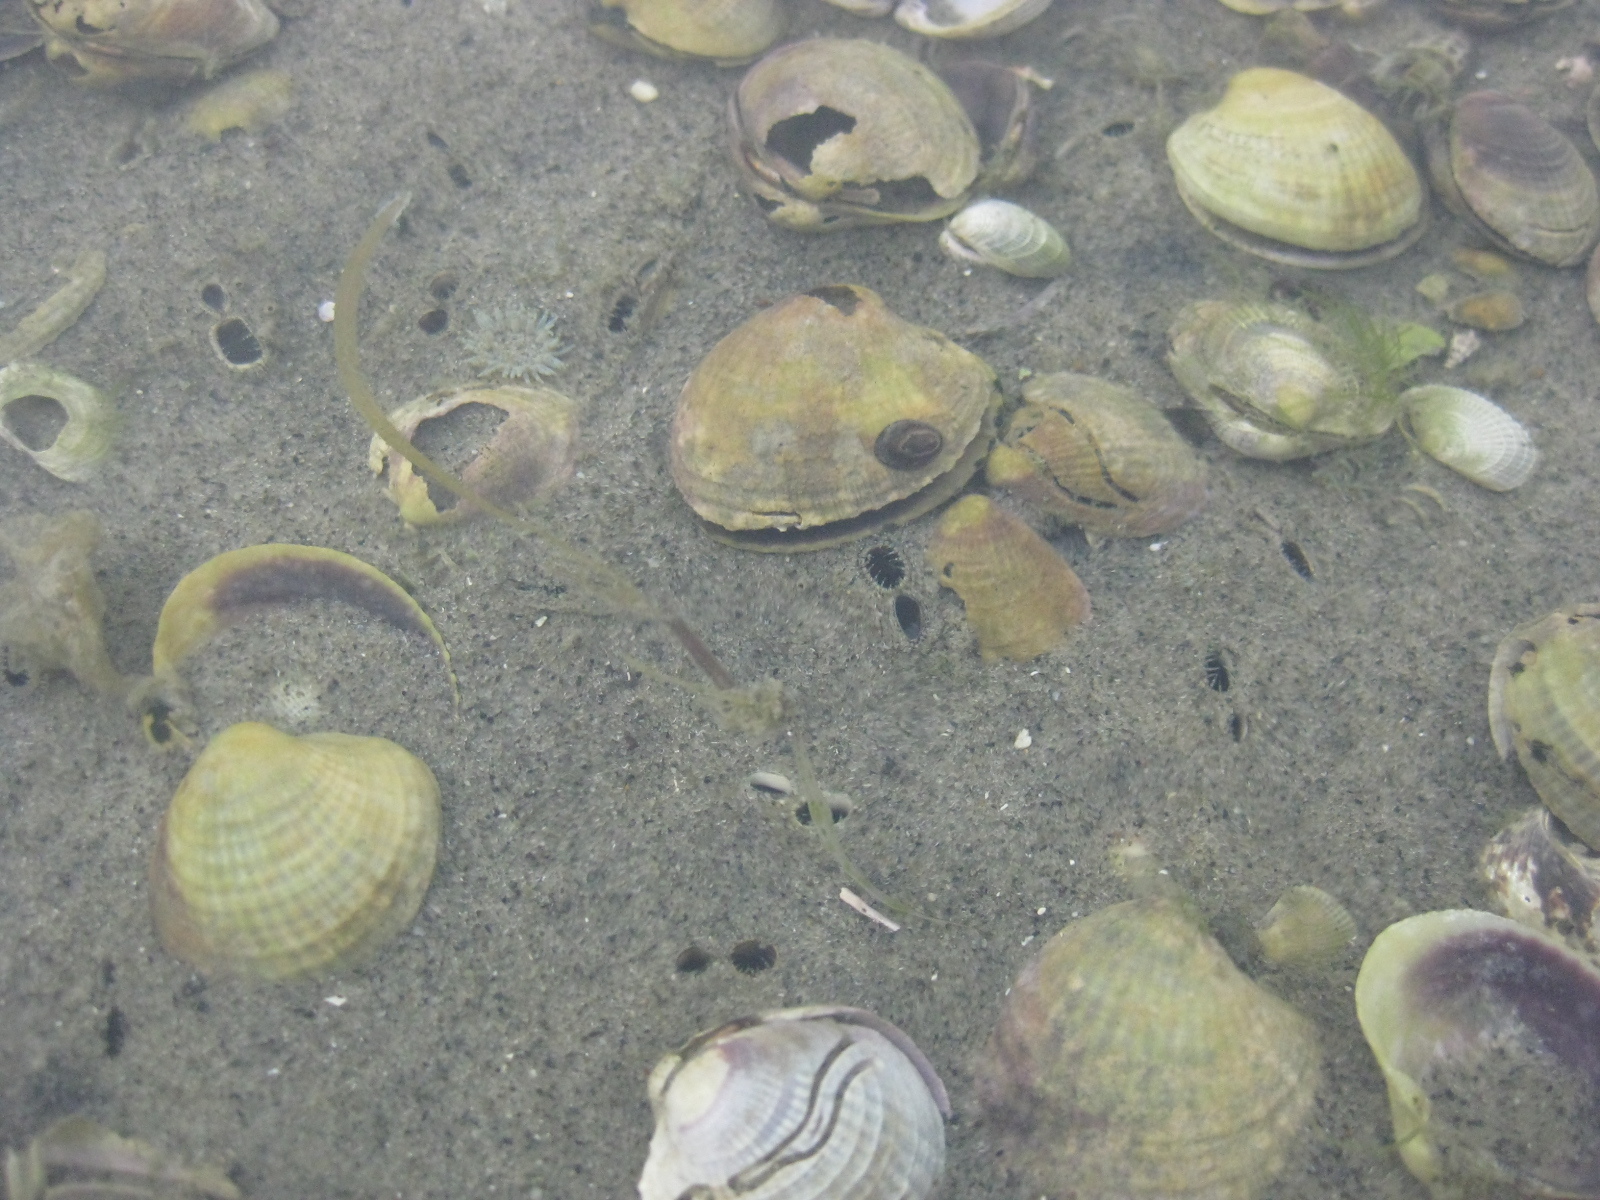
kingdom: Animalia
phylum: Mollusca
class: Bivalvia
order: Venerida
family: Veneridae
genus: Austrovenus
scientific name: Austrovenus stutchburyi
